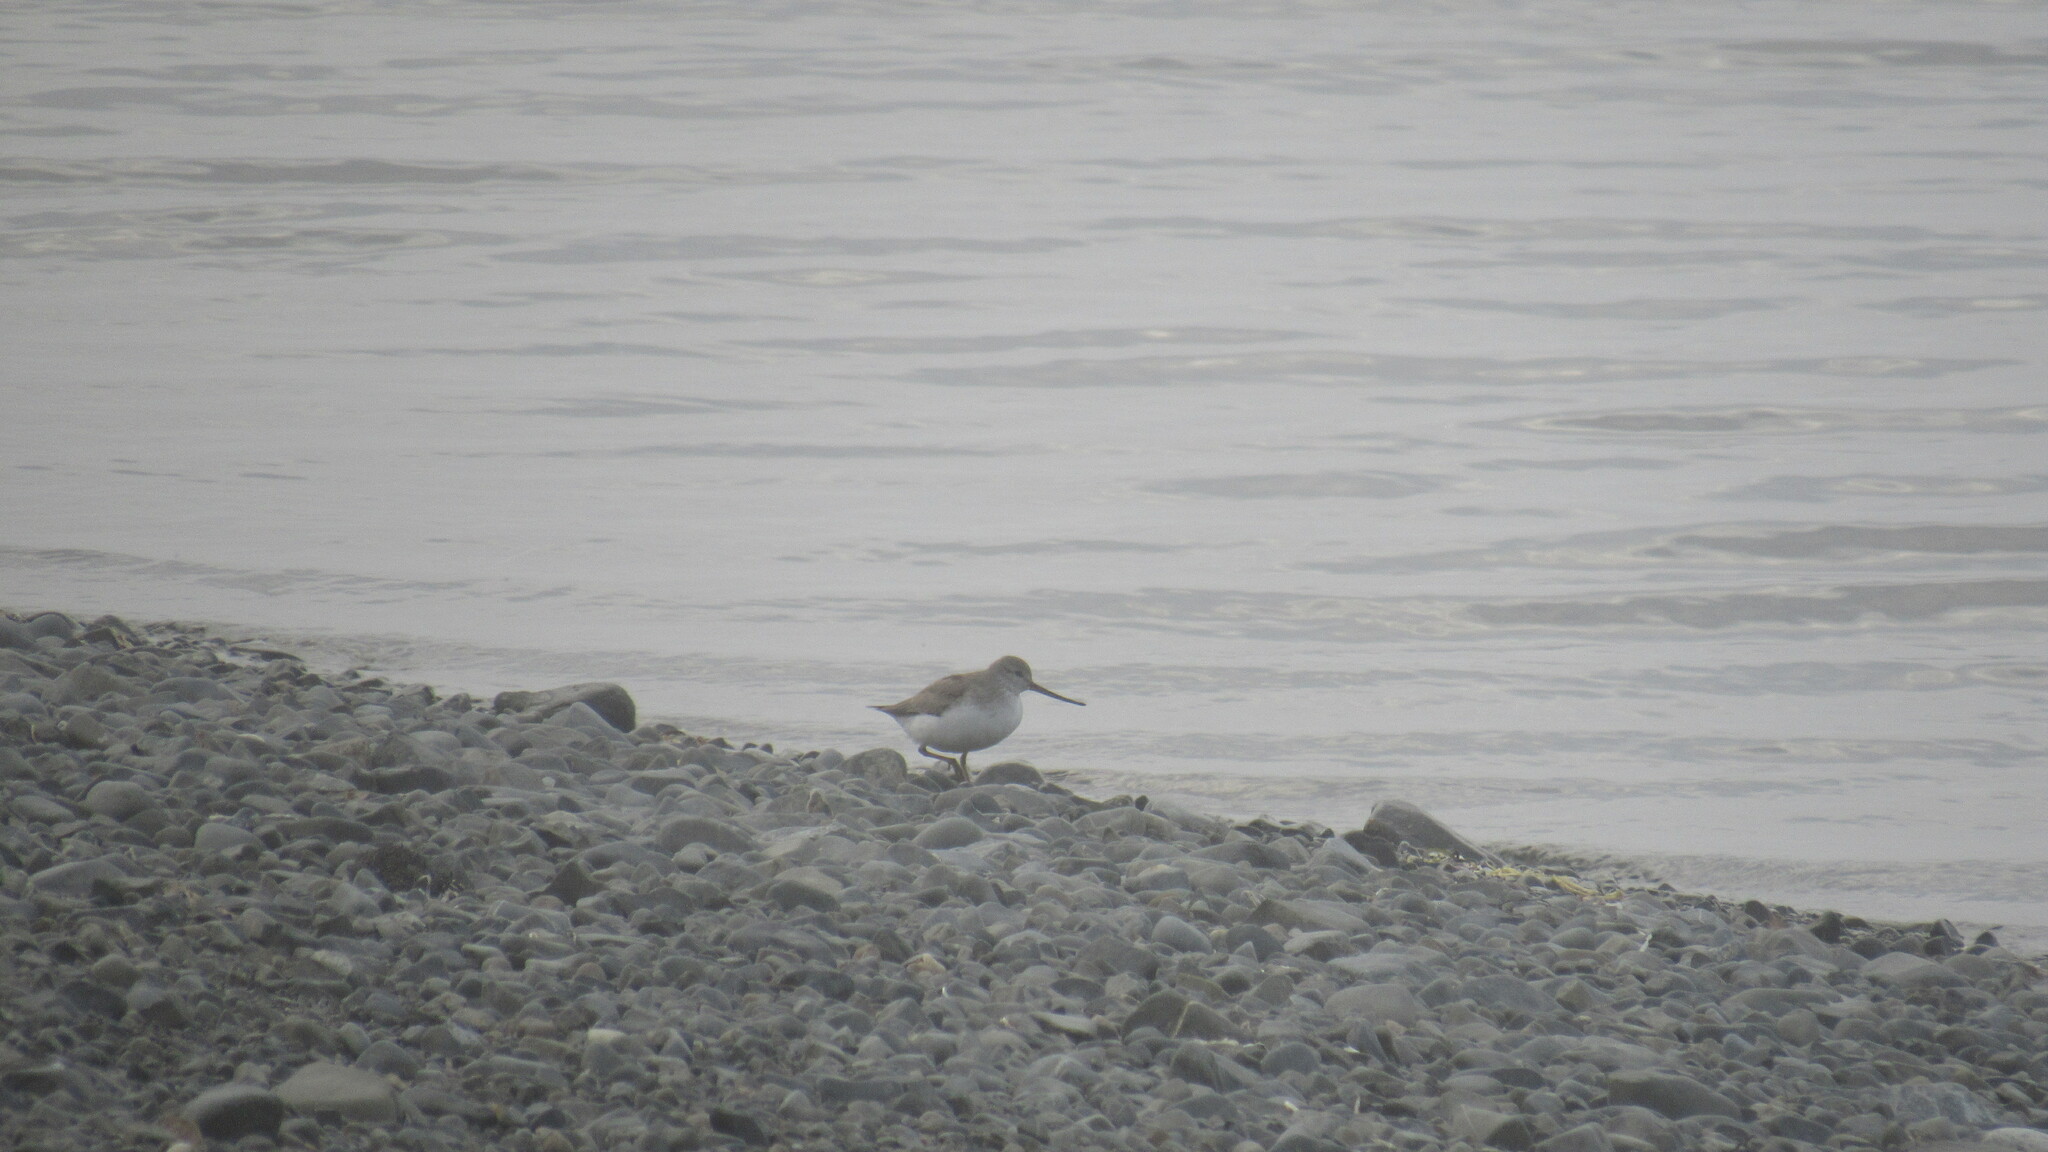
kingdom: Animalia
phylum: Chordata
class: Aves
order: Charadriiformes
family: Scolopacidae
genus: Xenus
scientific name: Xenus cinereus
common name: Terek sandpiper
